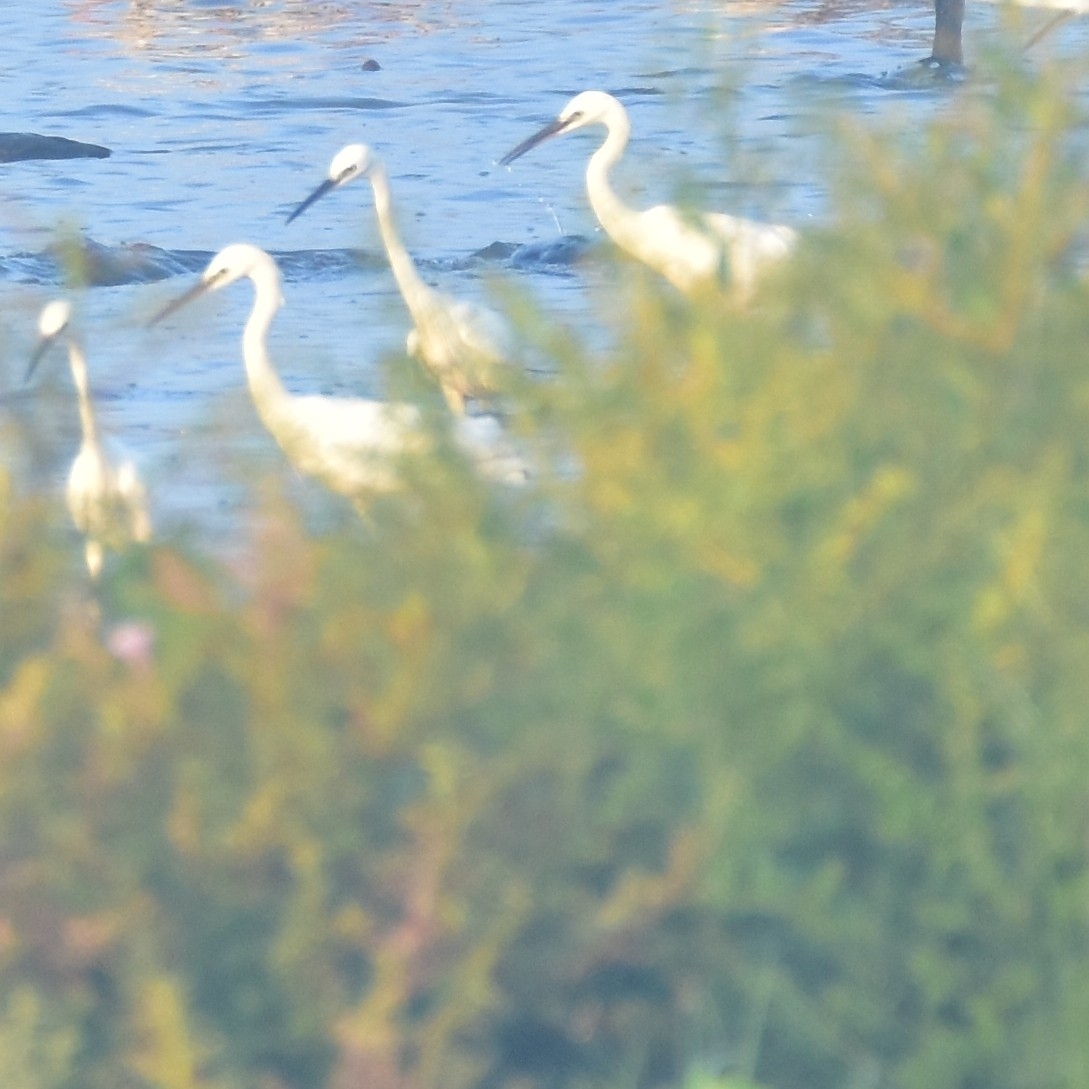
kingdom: Animalia
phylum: Chordata
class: Aves
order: Pelecaniformes
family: Ardeidae
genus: Egretta
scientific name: Egretta garzetta
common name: Little egret
